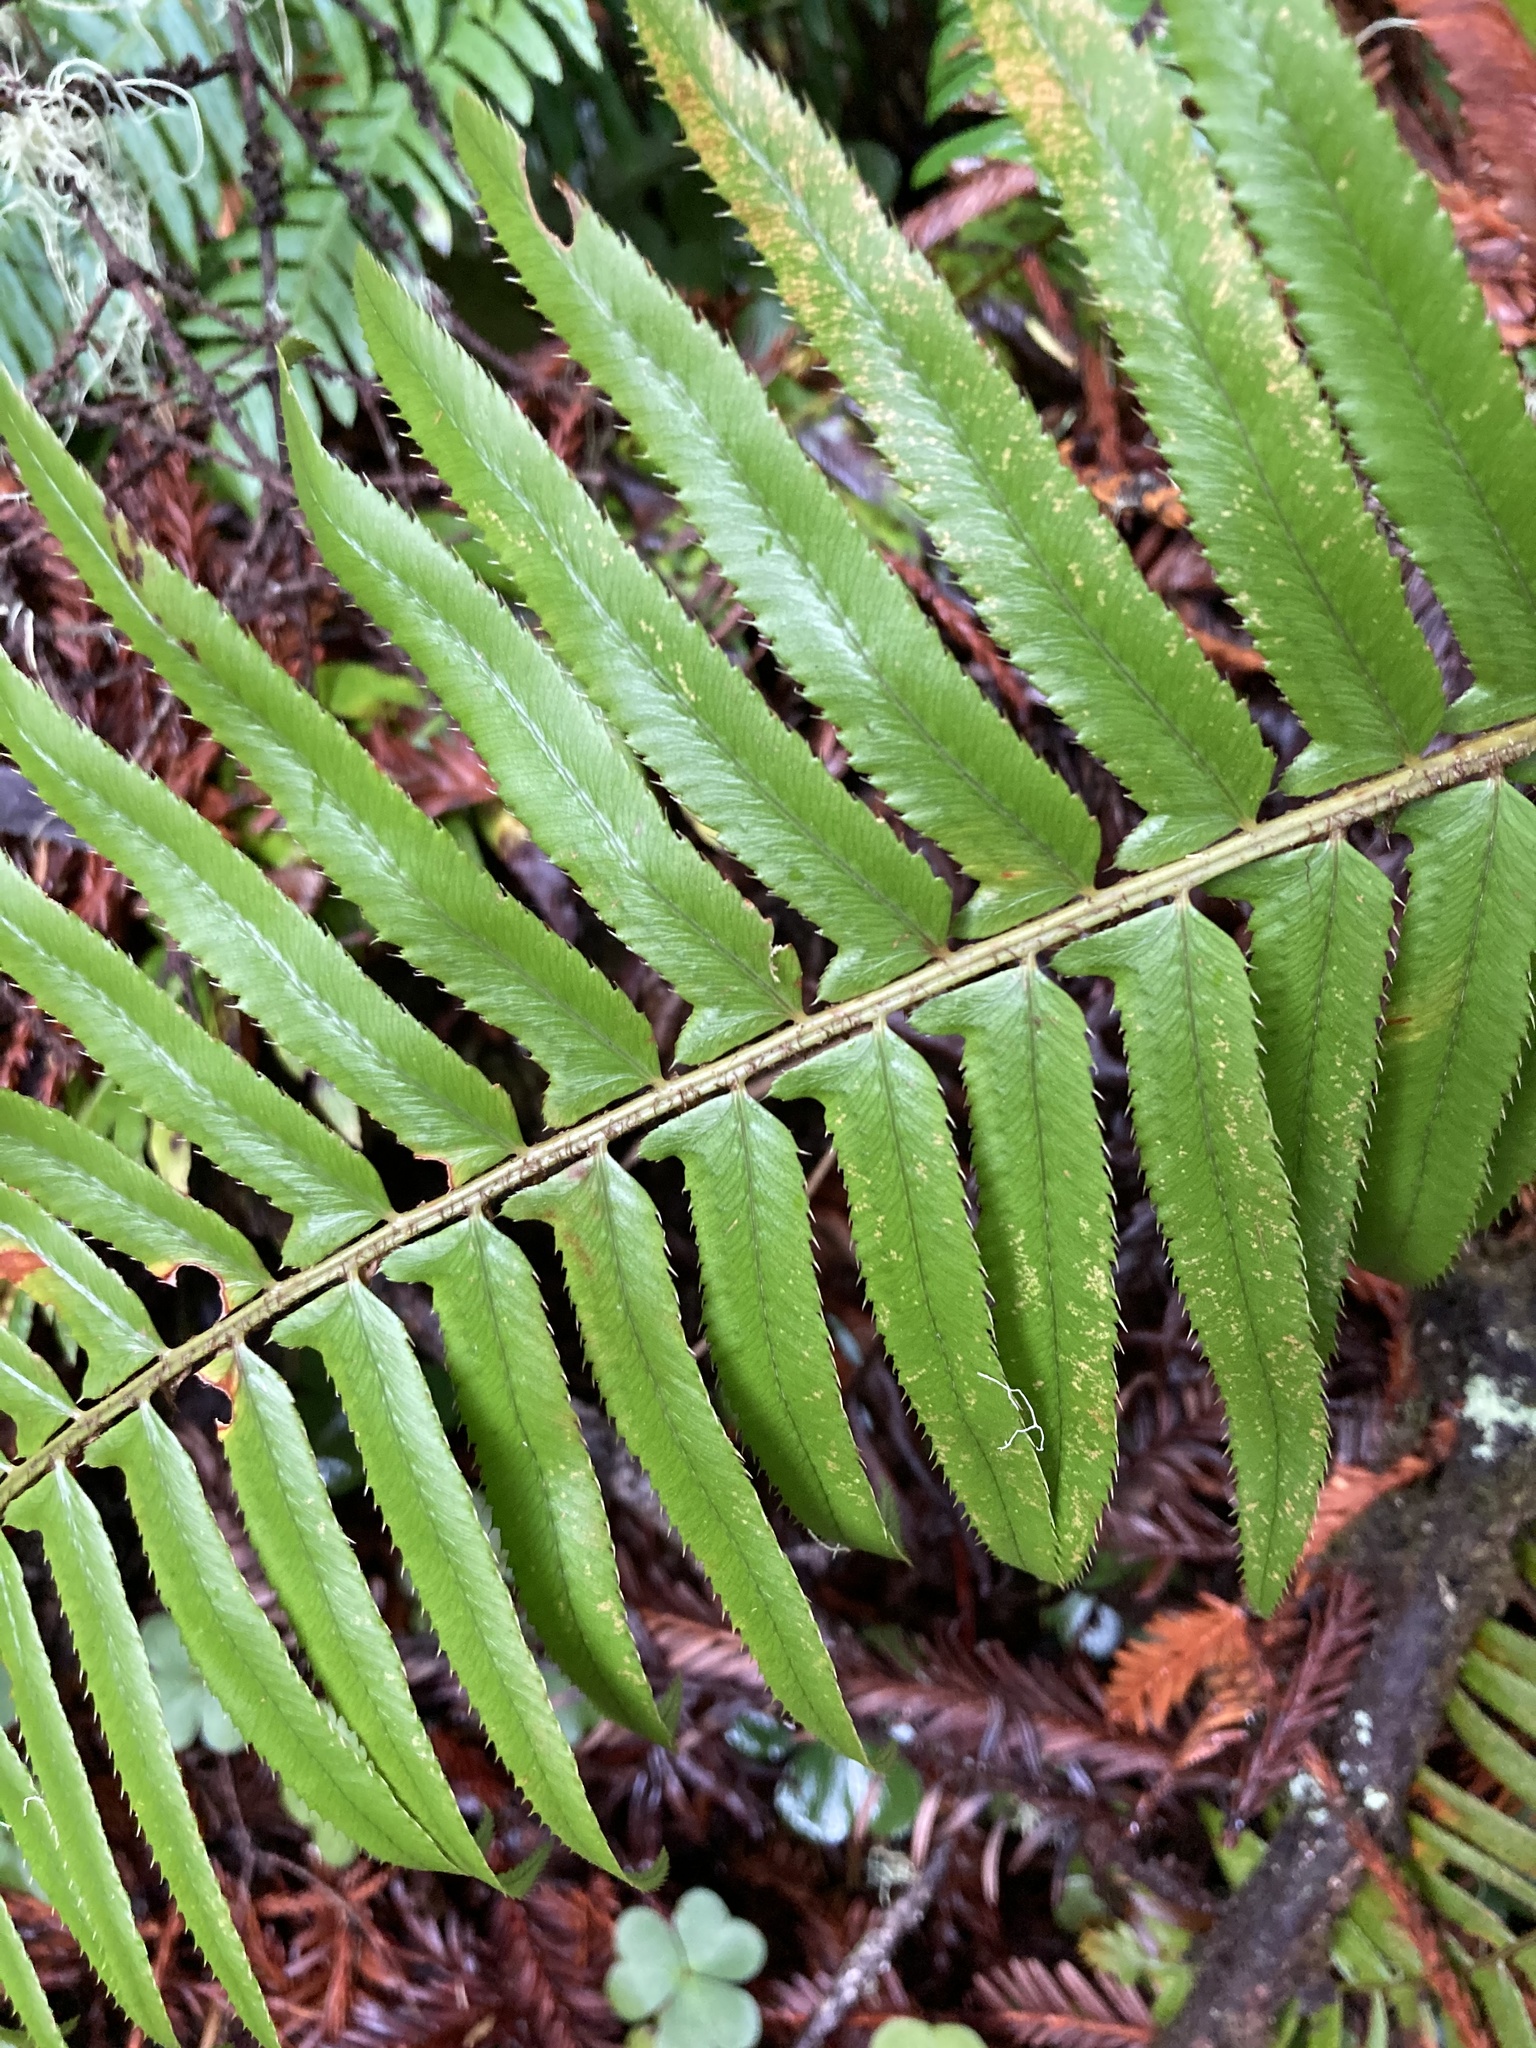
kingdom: Plantae
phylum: Tracheophyta
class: Polypodiopsida
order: Polypodiales
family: Dryopteridaceae
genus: Polystichum
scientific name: Polystichum munitum
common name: Western sword-fern
